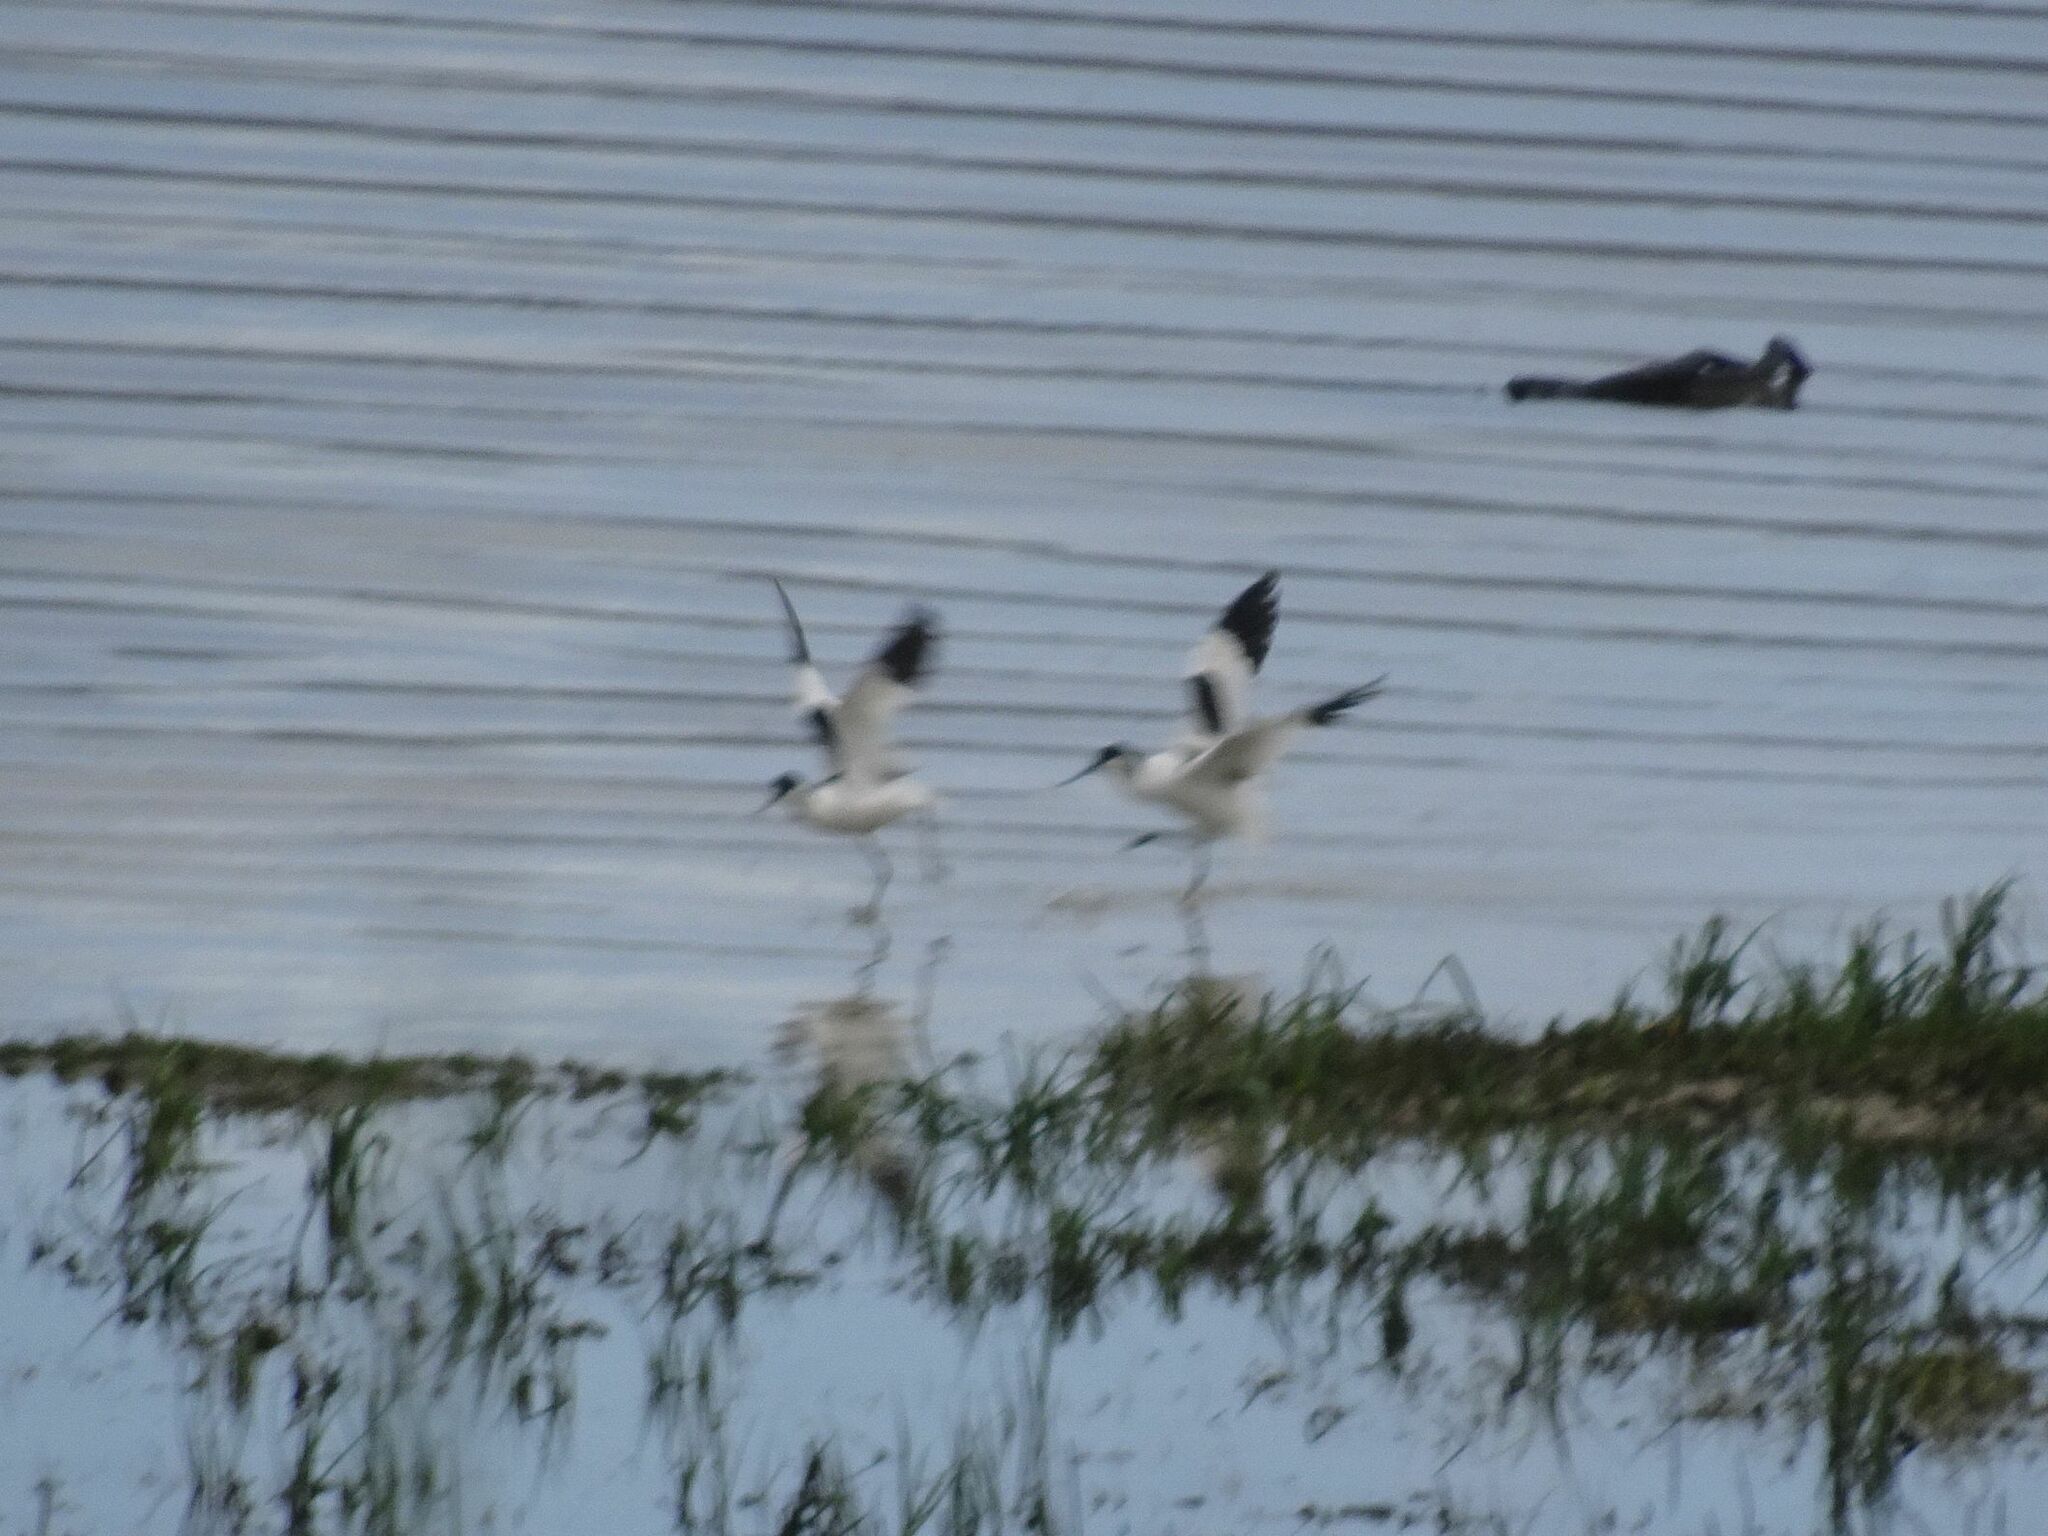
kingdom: Animalia
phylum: Chordata
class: Aves
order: Charadriiformes
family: Recurvirostridae
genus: Recurvirostra
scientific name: Recurvirostra avosetta
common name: Pied avocet
